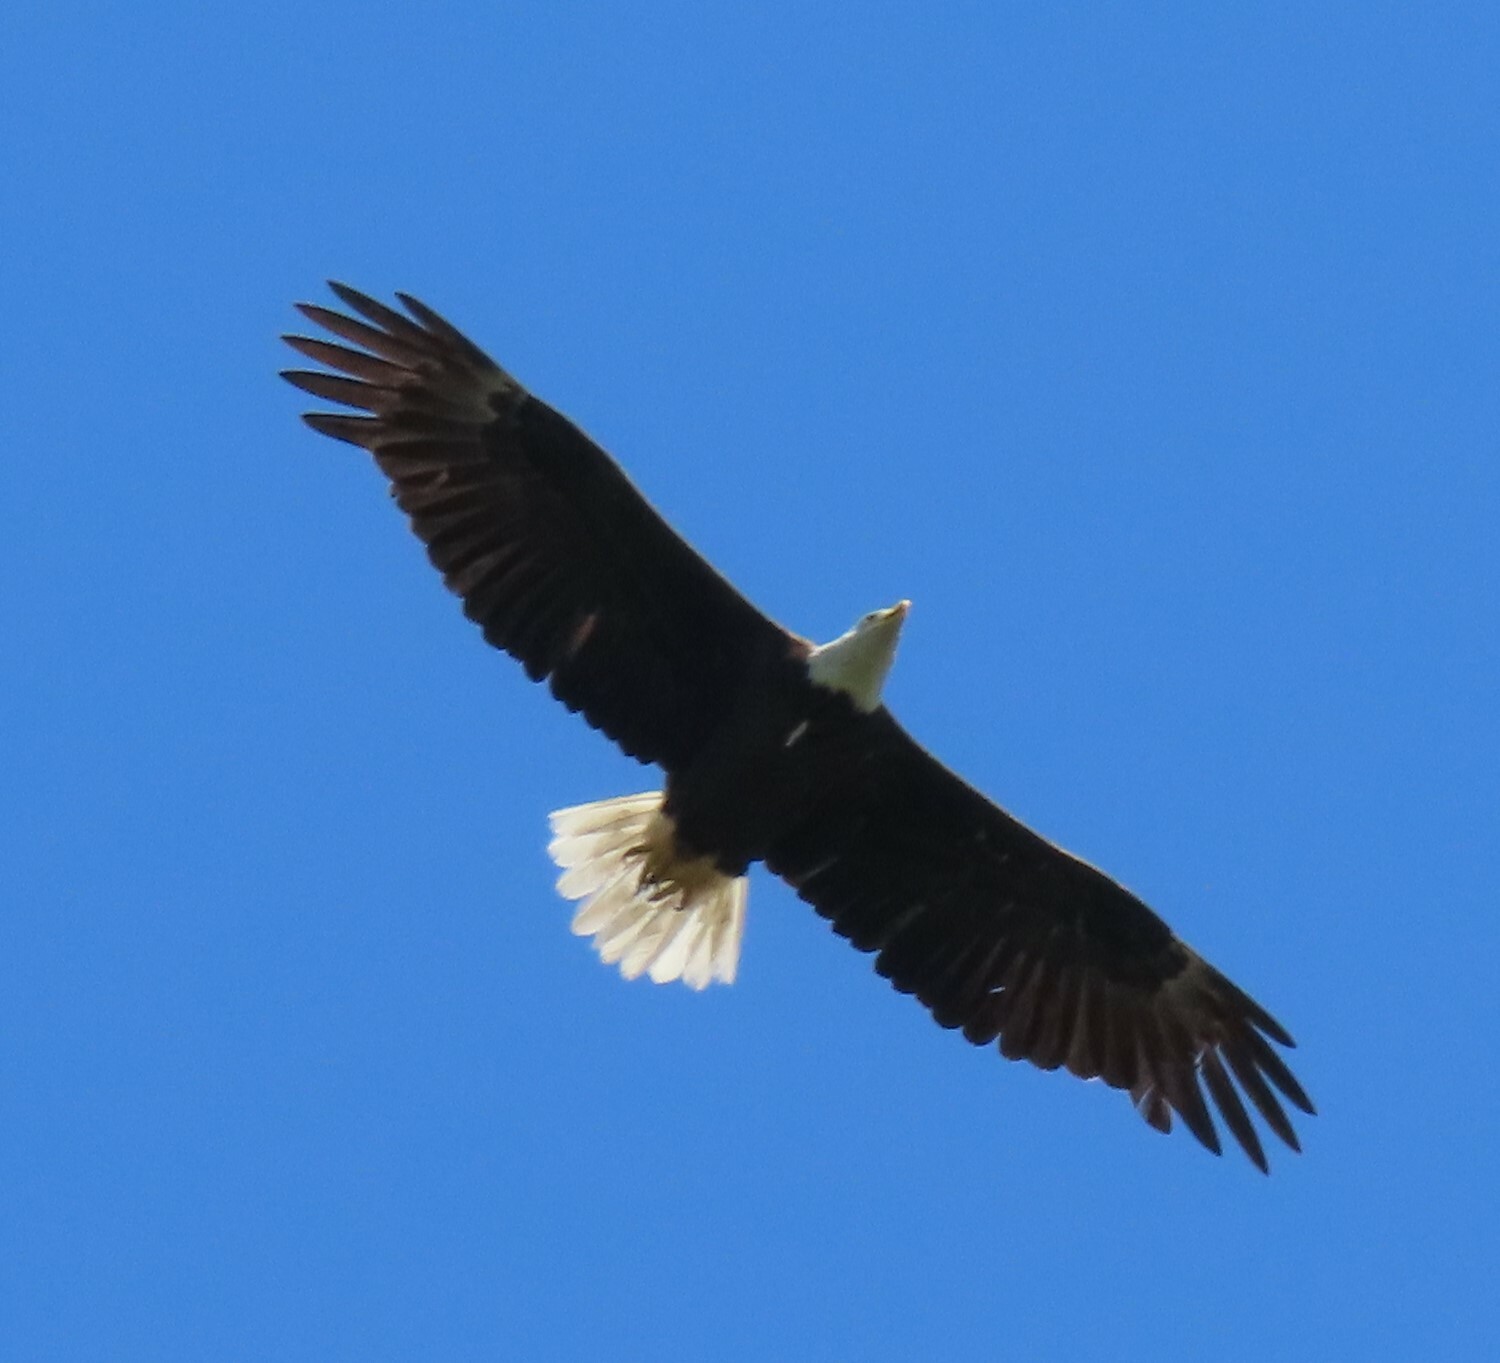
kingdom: Animalia
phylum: Chordata
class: Aves
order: Accipitriformes
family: Accipitridae
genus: Haliaeetus
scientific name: Haliaeetus leucocephalus
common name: Bald eagle
